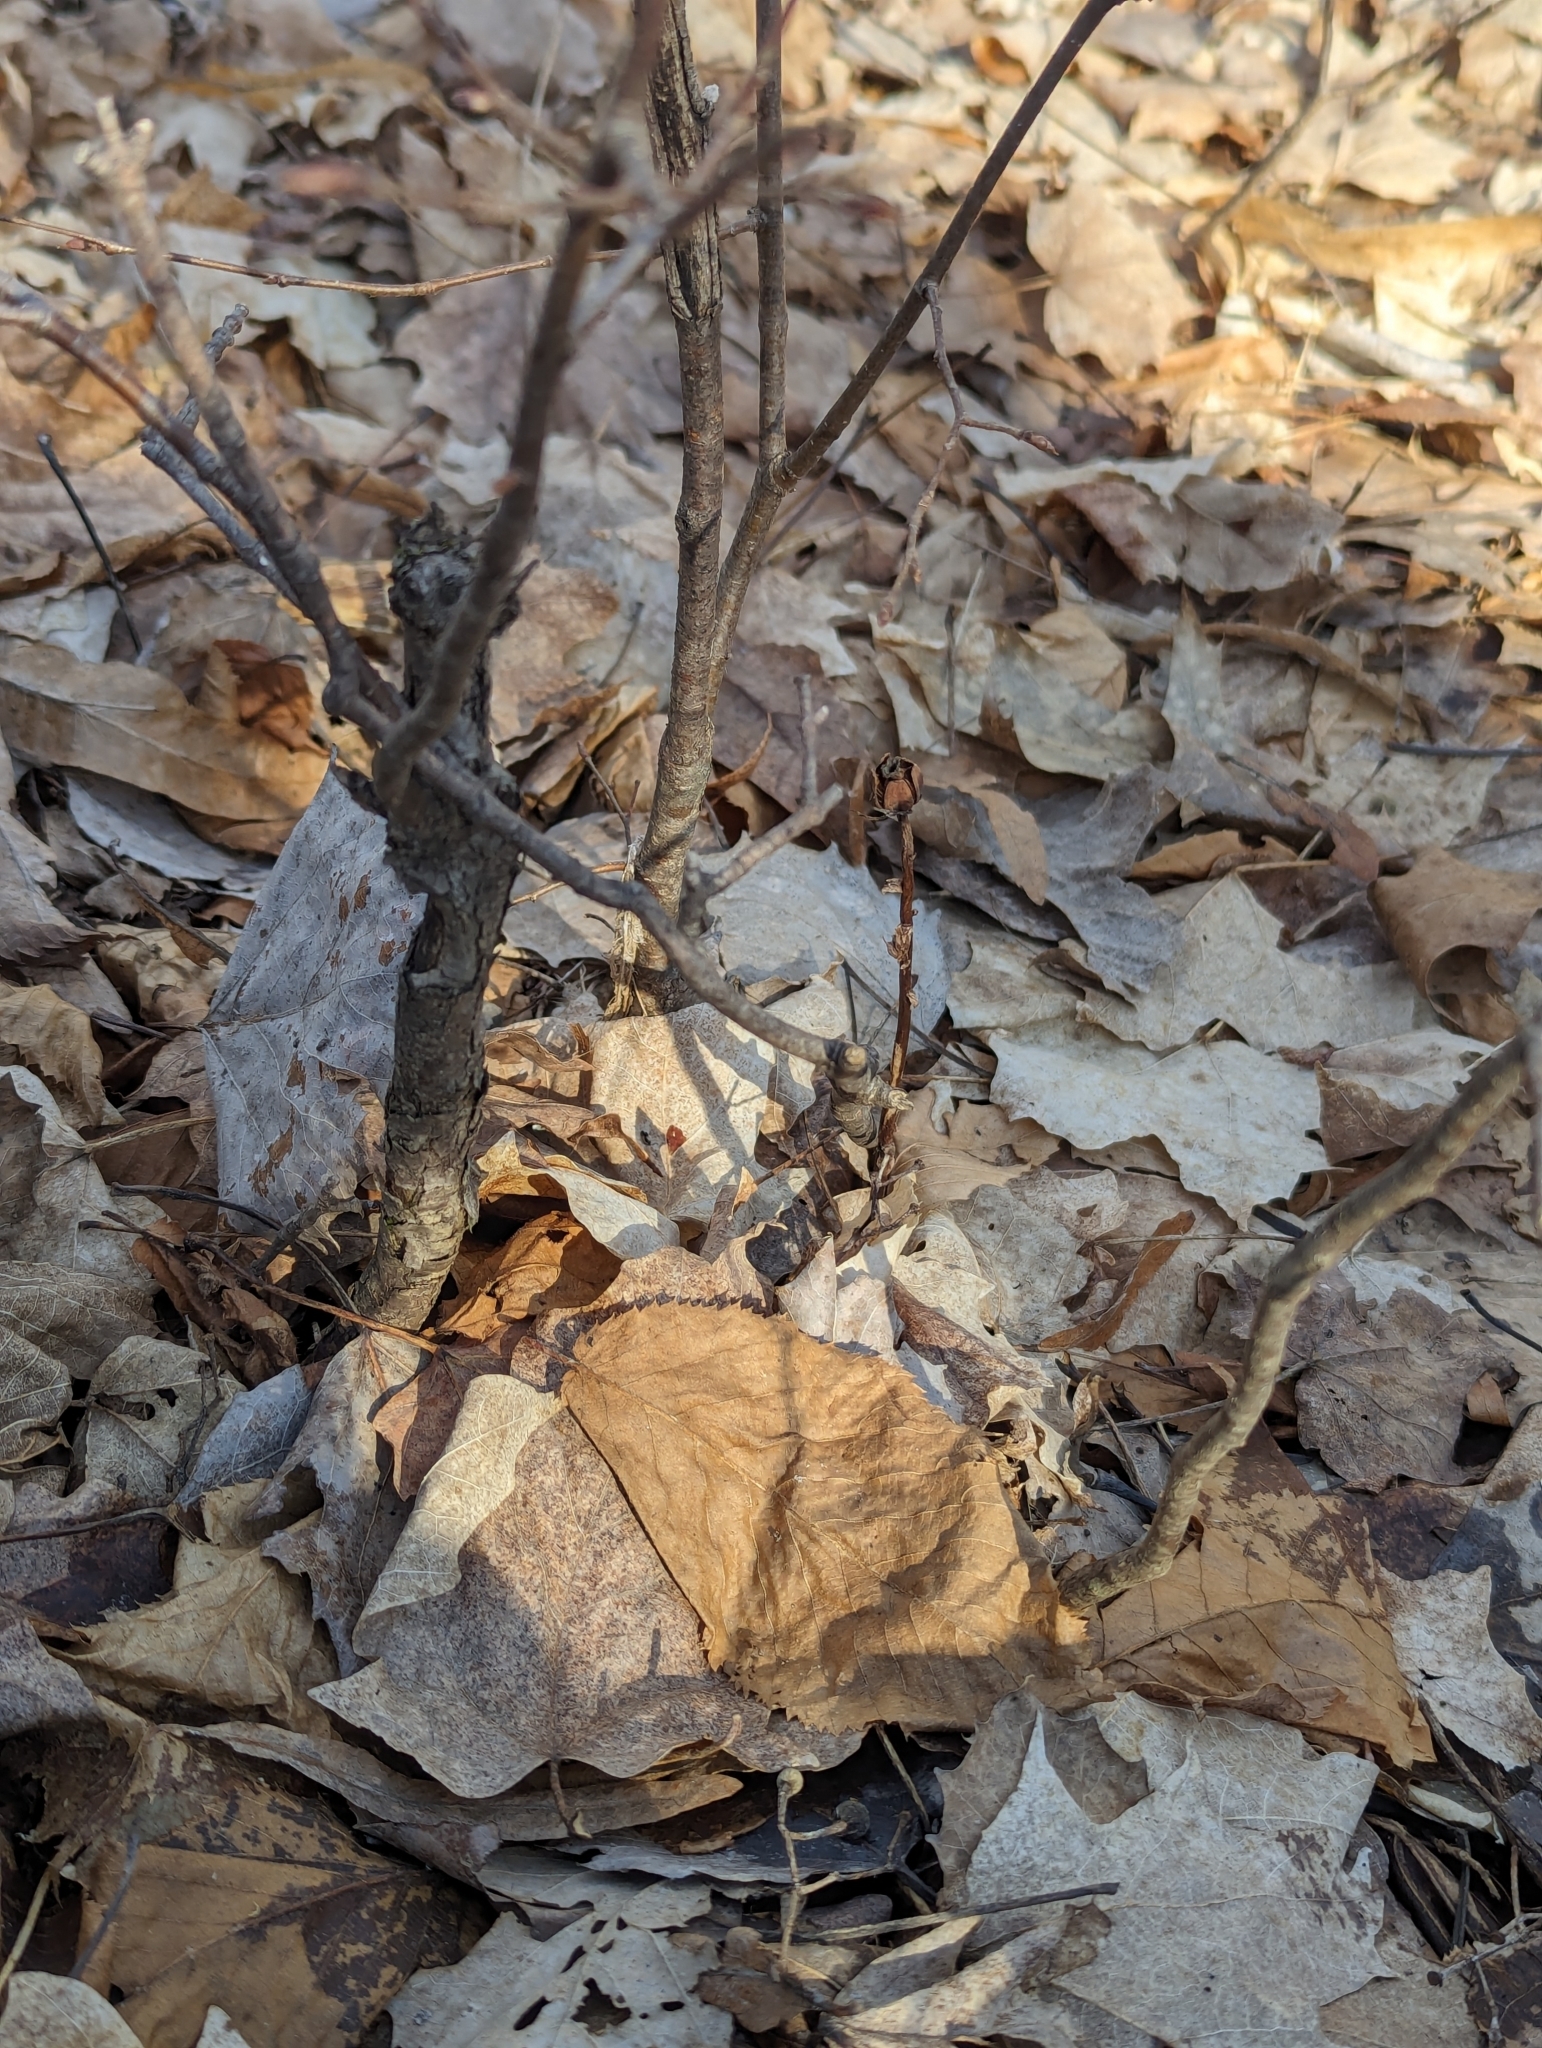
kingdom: Plantae
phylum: Tracheophyta
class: Magnoliopsida
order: Ericales
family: Ericaceae
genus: Monotropa
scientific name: Monotropa uniflora
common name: Convulsion root
